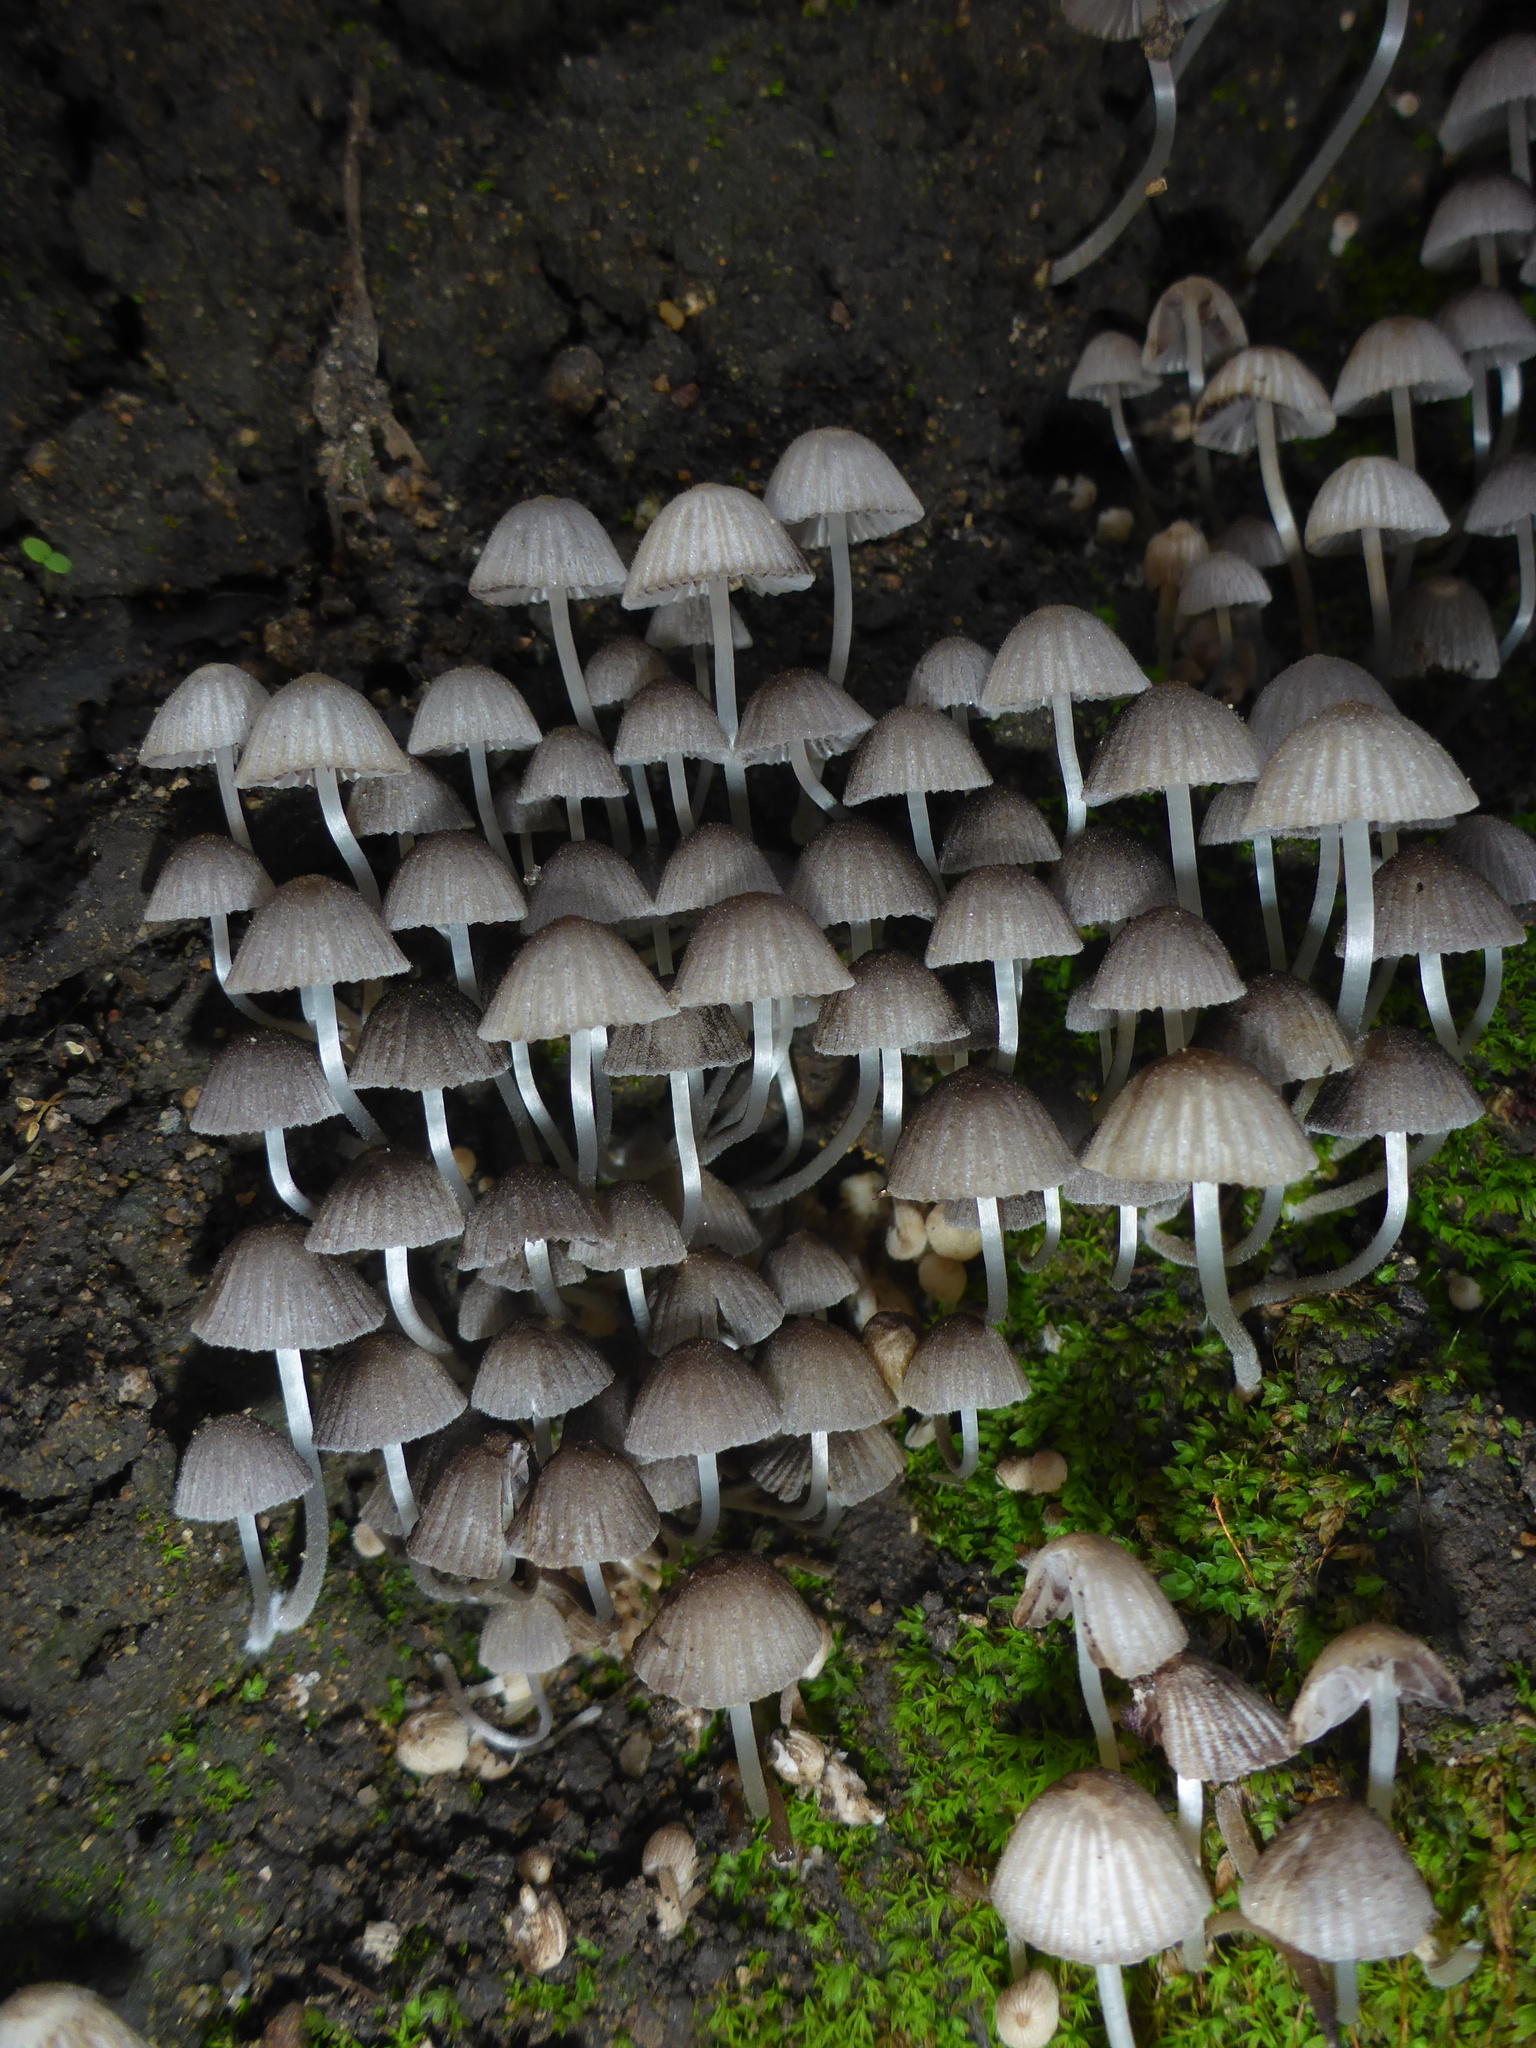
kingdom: Fungi
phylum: Basidiomycota
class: Agaricomycetes
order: Agaricales
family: Psathyrellaceae
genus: Coprinellus
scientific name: Coprinellus disseminatus
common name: Fairies' bonnets
